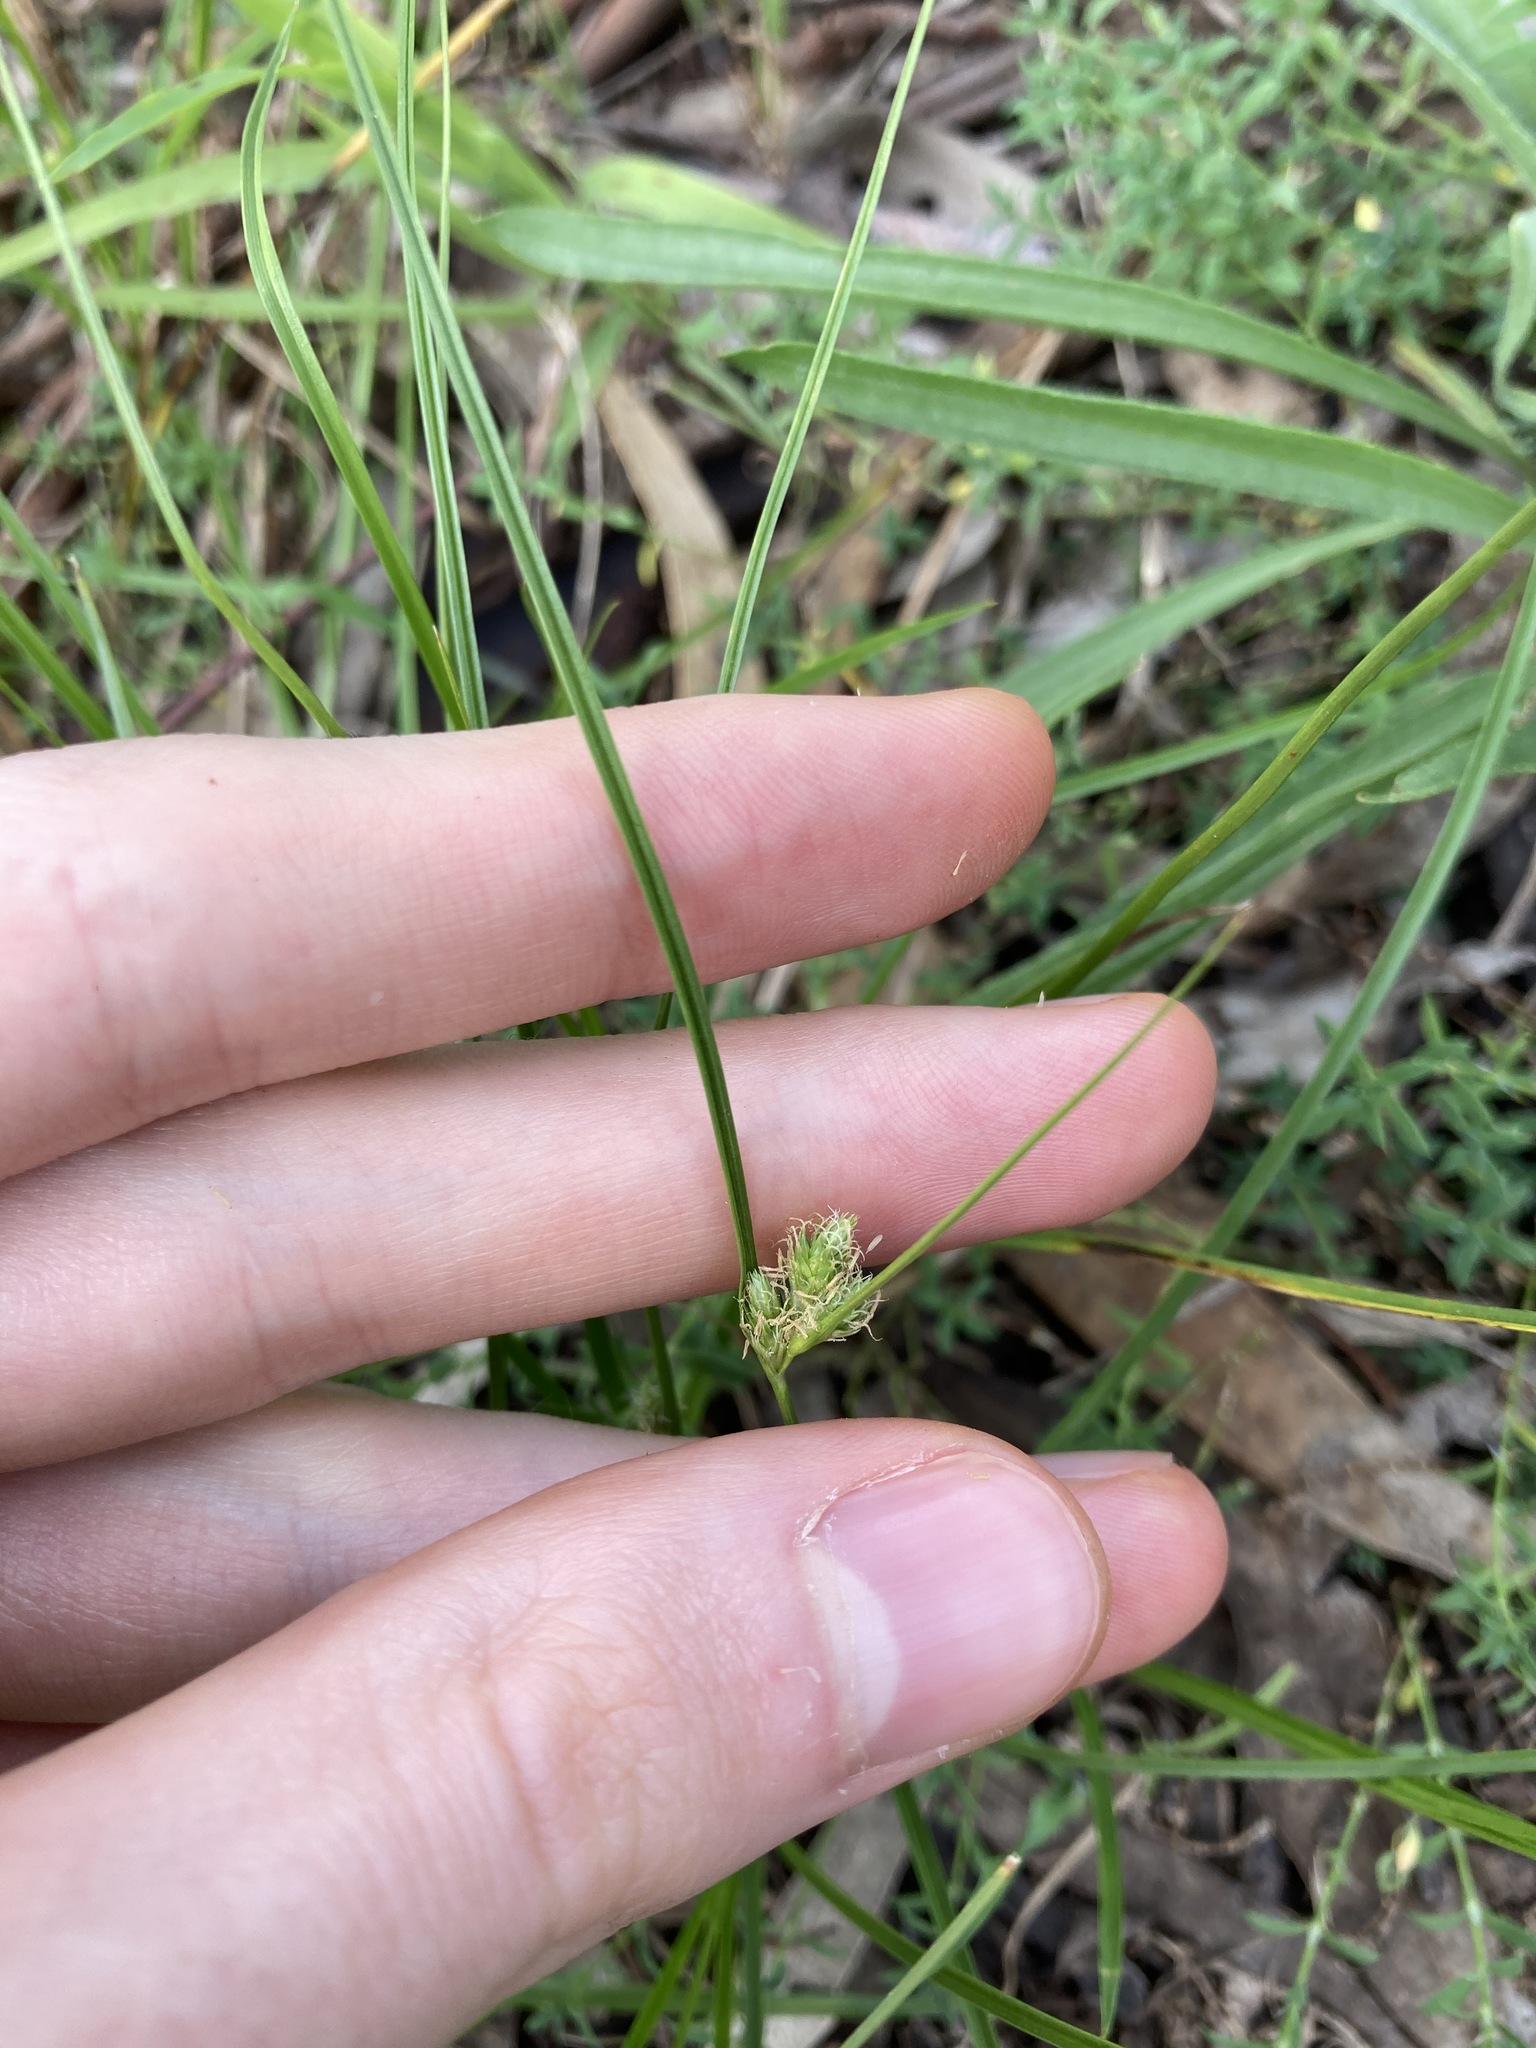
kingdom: Plantae
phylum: Tracheophyta
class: Liliopsida
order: Poales
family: Cyperaceae
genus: Carex
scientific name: Carex inversa
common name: Knob sedge
